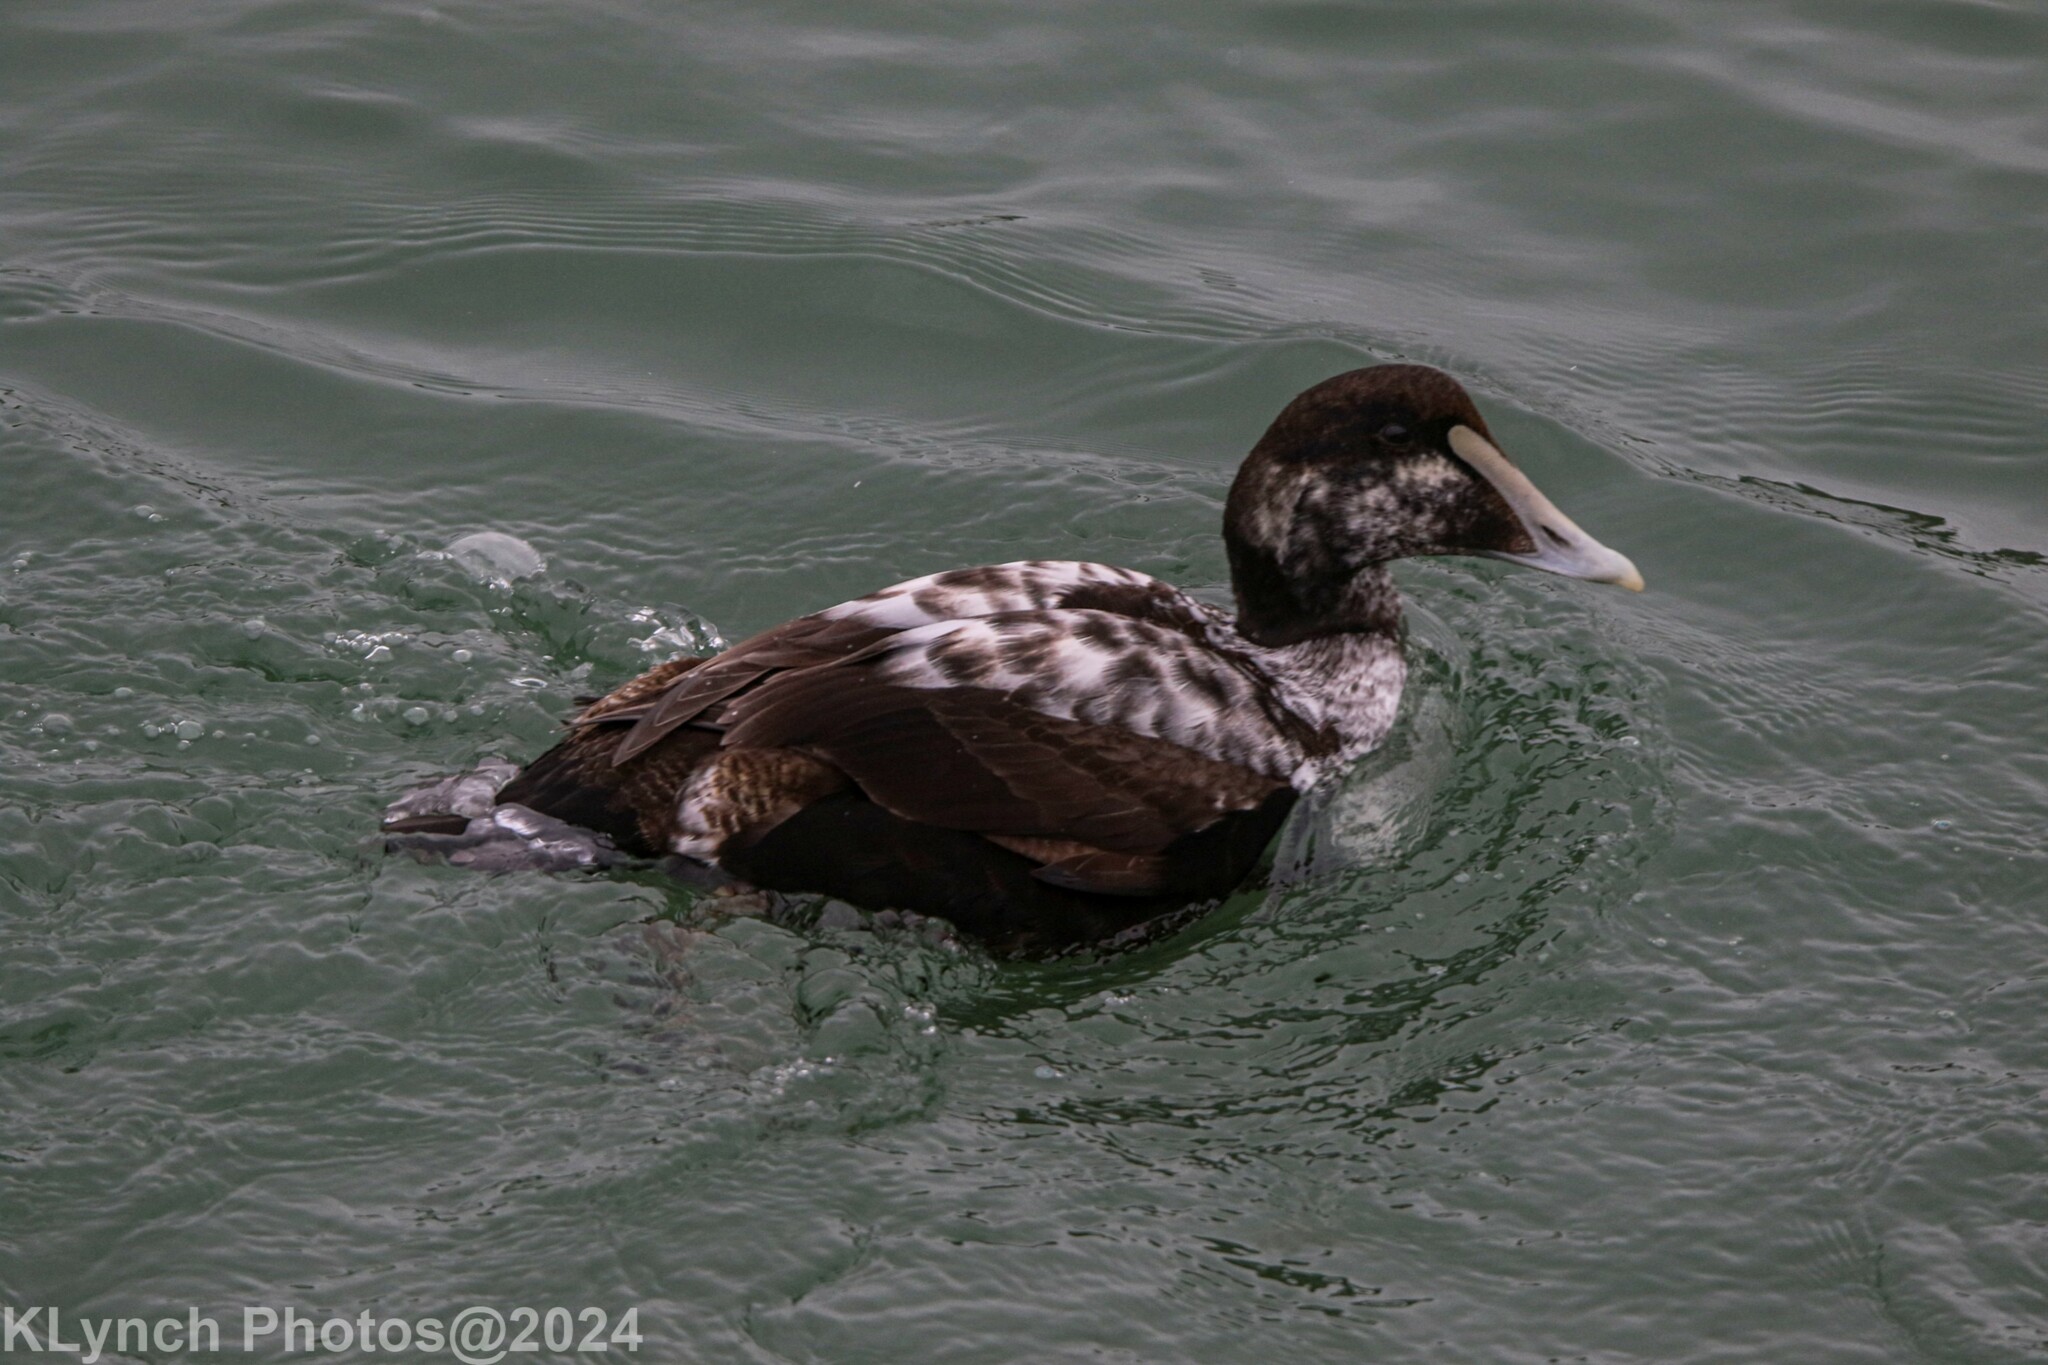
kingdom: Animalia
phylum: Chordata
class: Aves
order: Anseriformes
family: Anatidae
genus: Somateria
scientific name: Somateria mollissima
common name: Common eider
